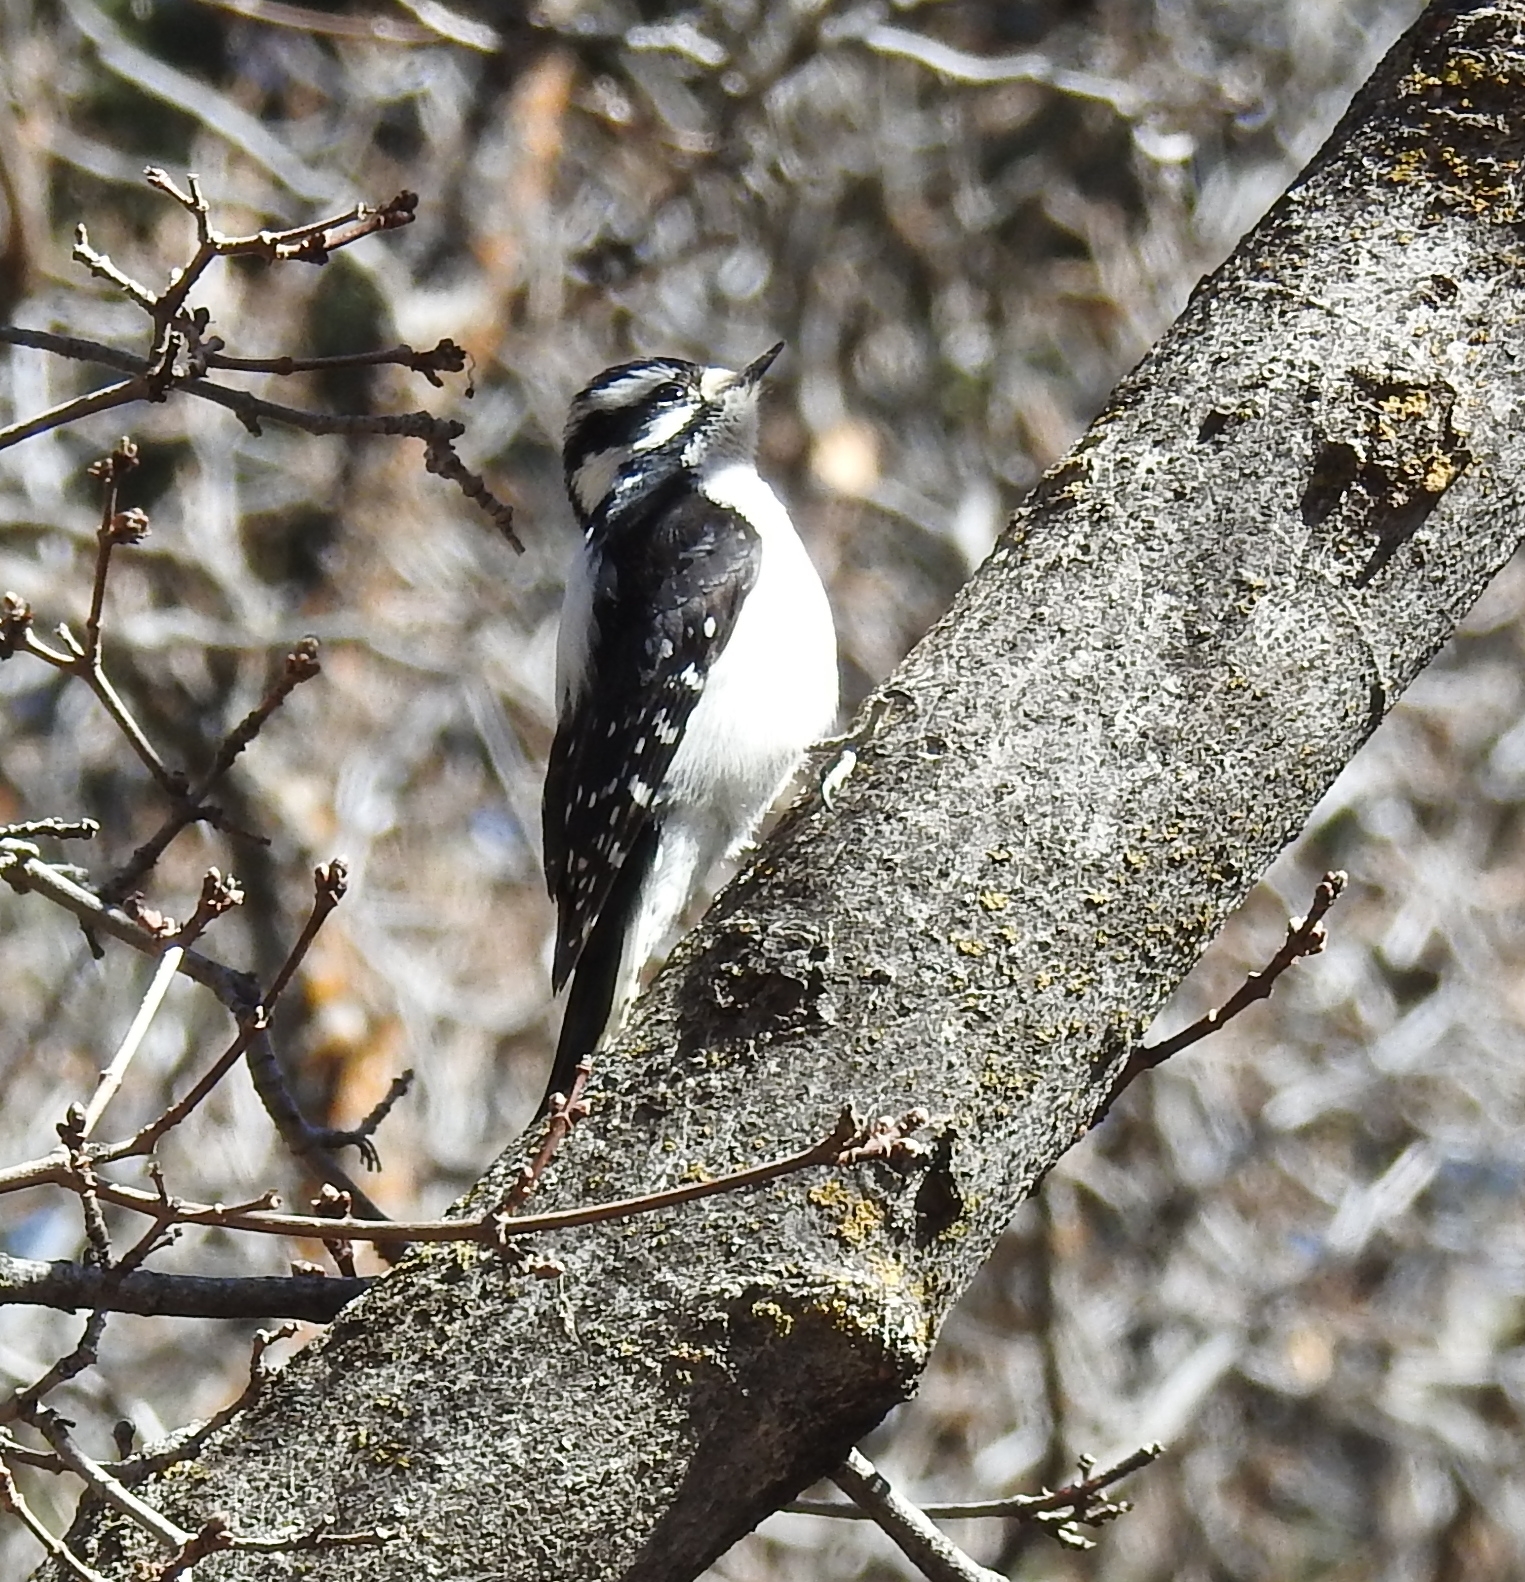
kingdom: Animalia
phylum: Chordata
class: Aves
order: Piciformes
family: Picidae
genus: Dryobates
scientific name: Dryobates pubescens
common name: Downy woodpecker
